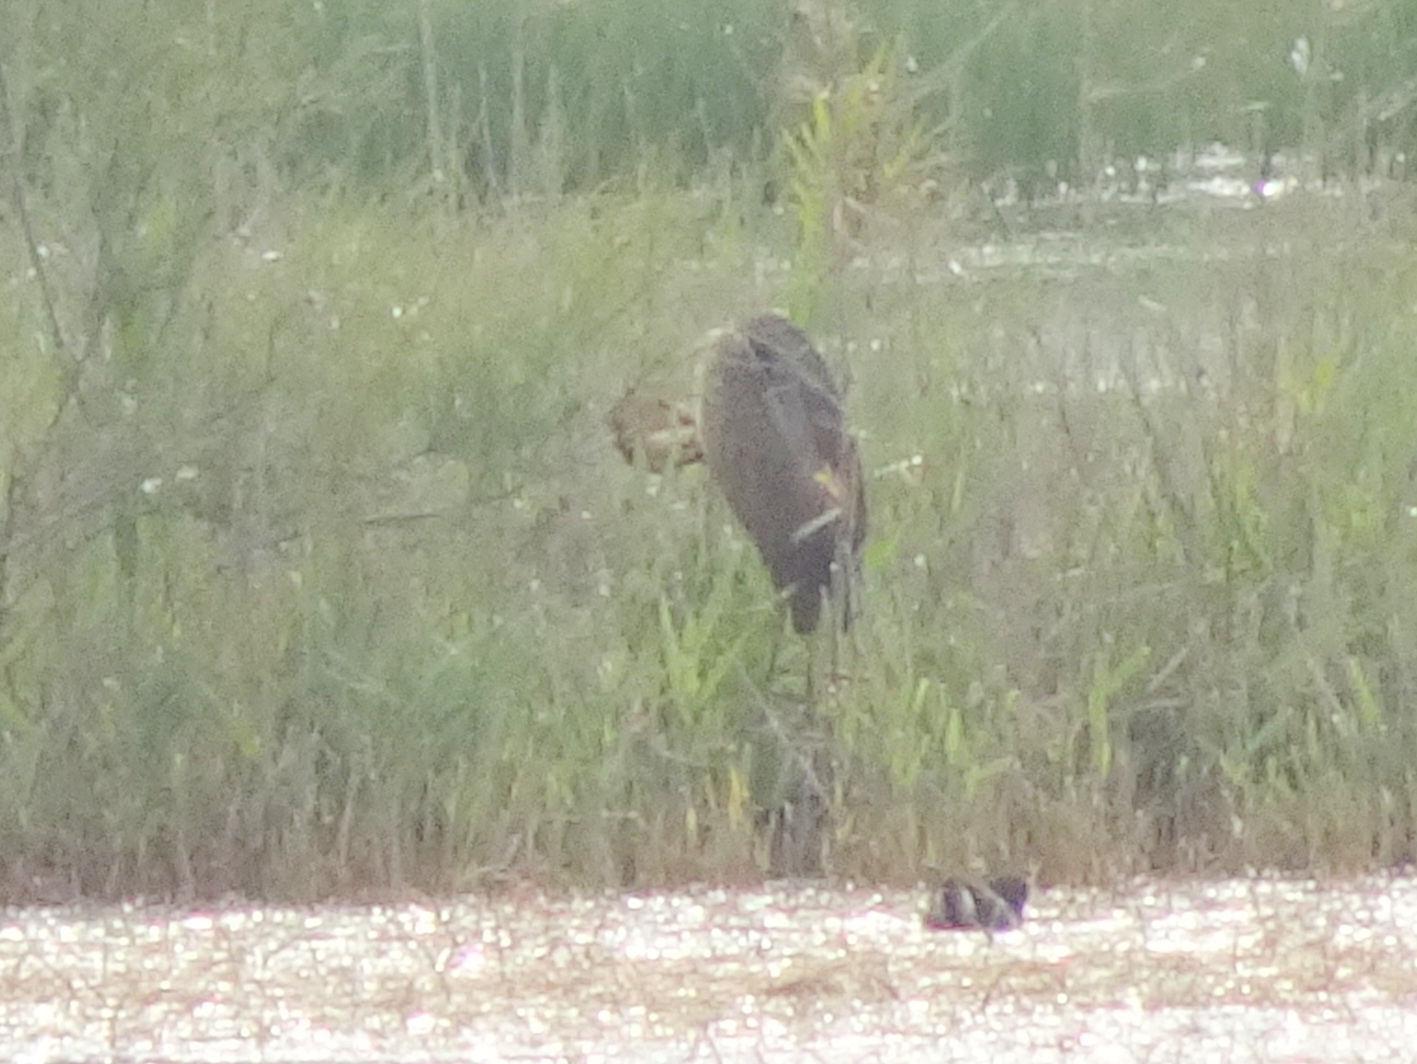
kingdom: Animalia
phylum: Chordata
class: Aves
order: Pelecaniformes
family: Ardeidae
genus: Ardea
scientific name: Ardea purpurea
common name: Purple heron
